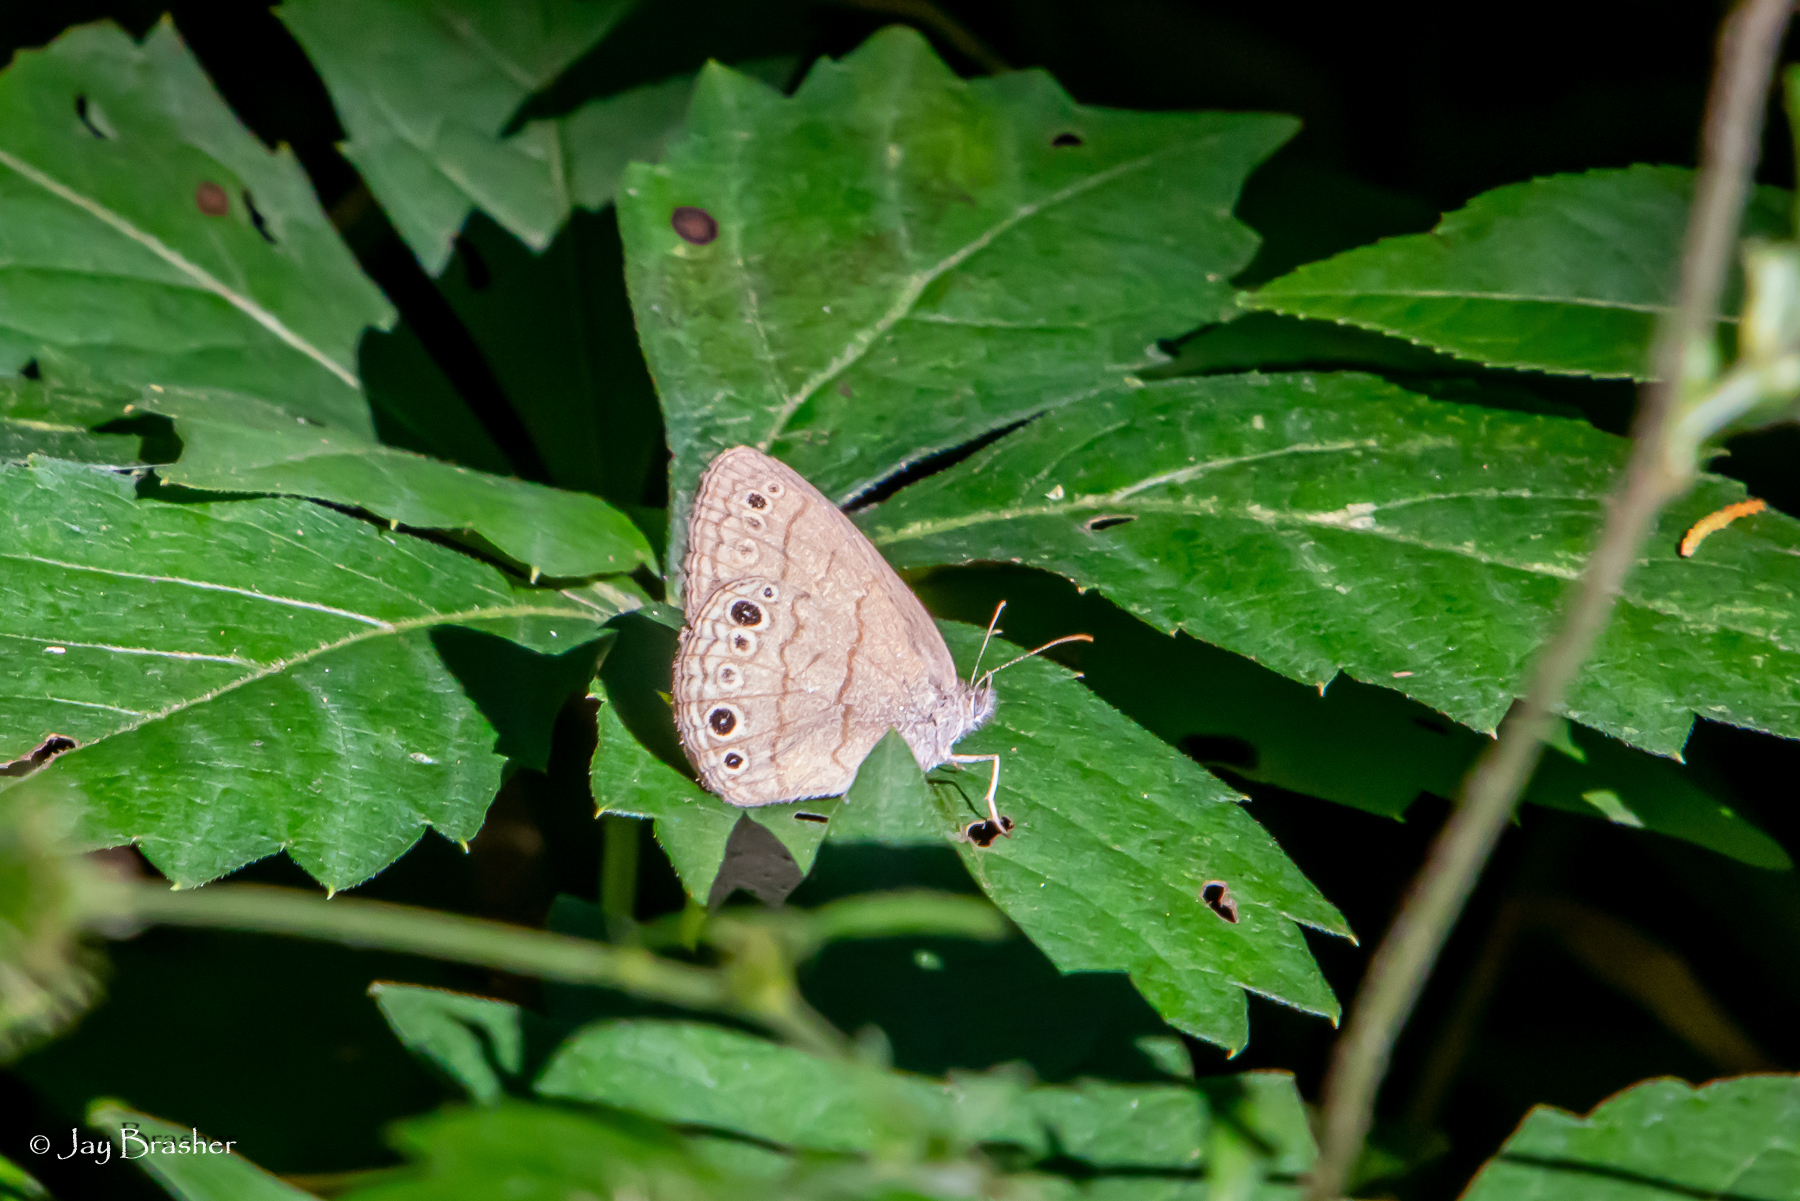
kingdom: Animalia
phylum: Arthropoda
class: Insecta
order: Lepidoptera
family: Nymphalidae
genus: Hermeuptychia
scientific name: Hermeuptychia hermes
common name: Hermes satyr
